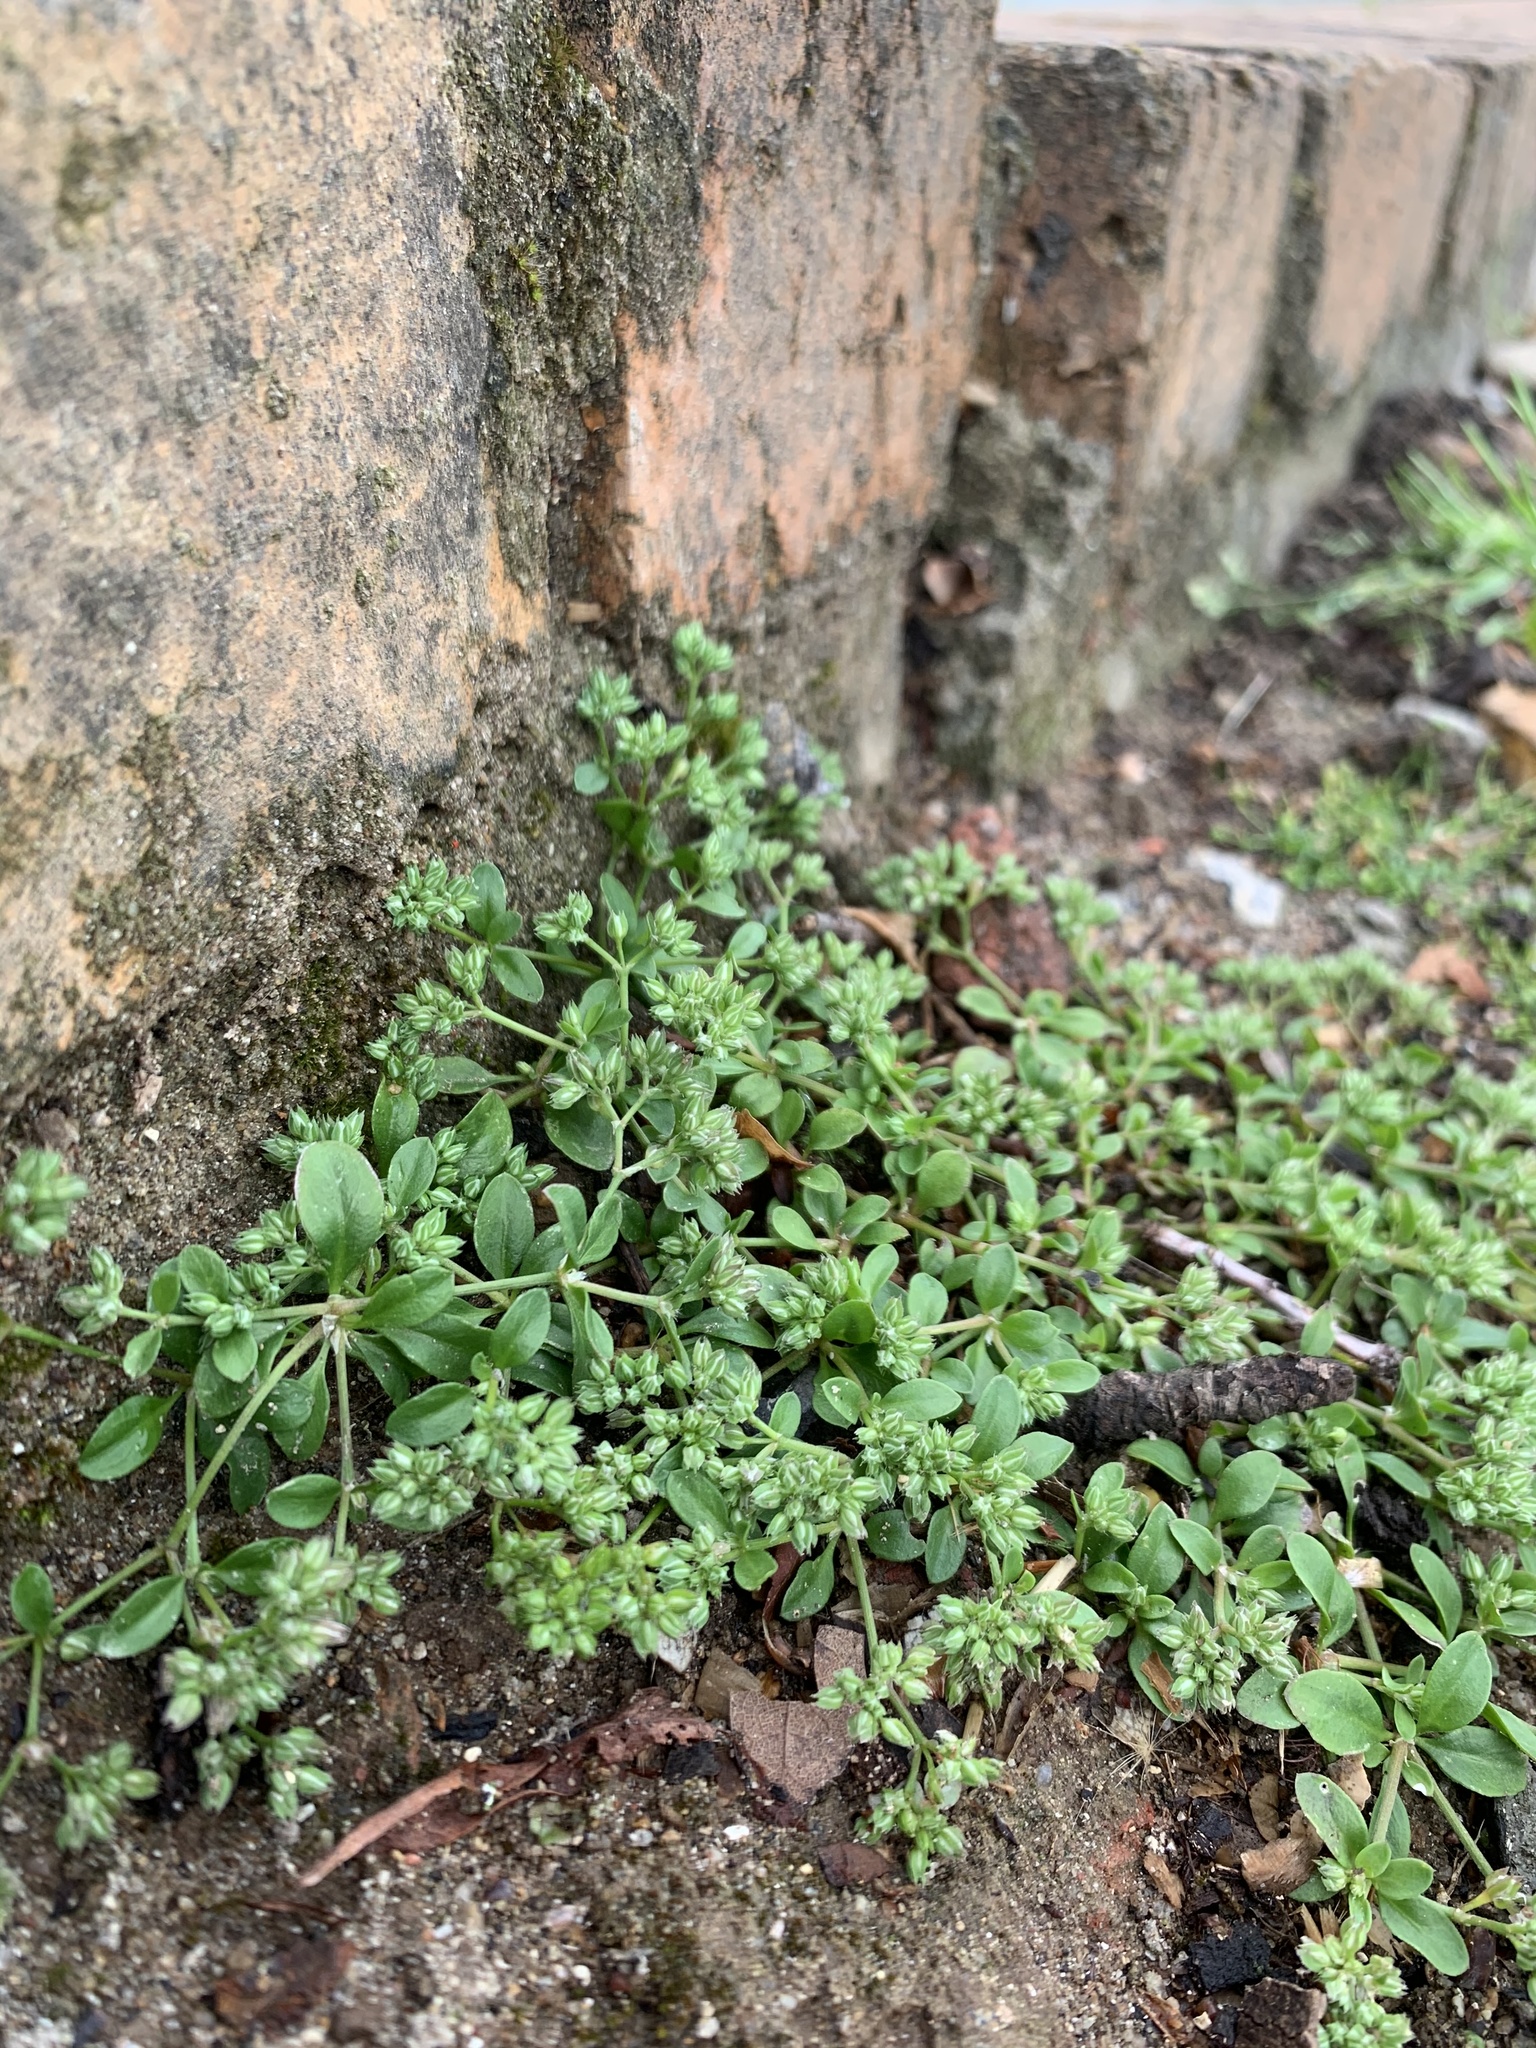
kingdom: Plantae
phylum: Tracheophyta
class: Magnoliopsida
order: Caryophyllales
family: Caryophyllaceae
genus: Polycarpon
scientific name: Polycarpon tetraphyllum
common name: Four-leaved all-seed
